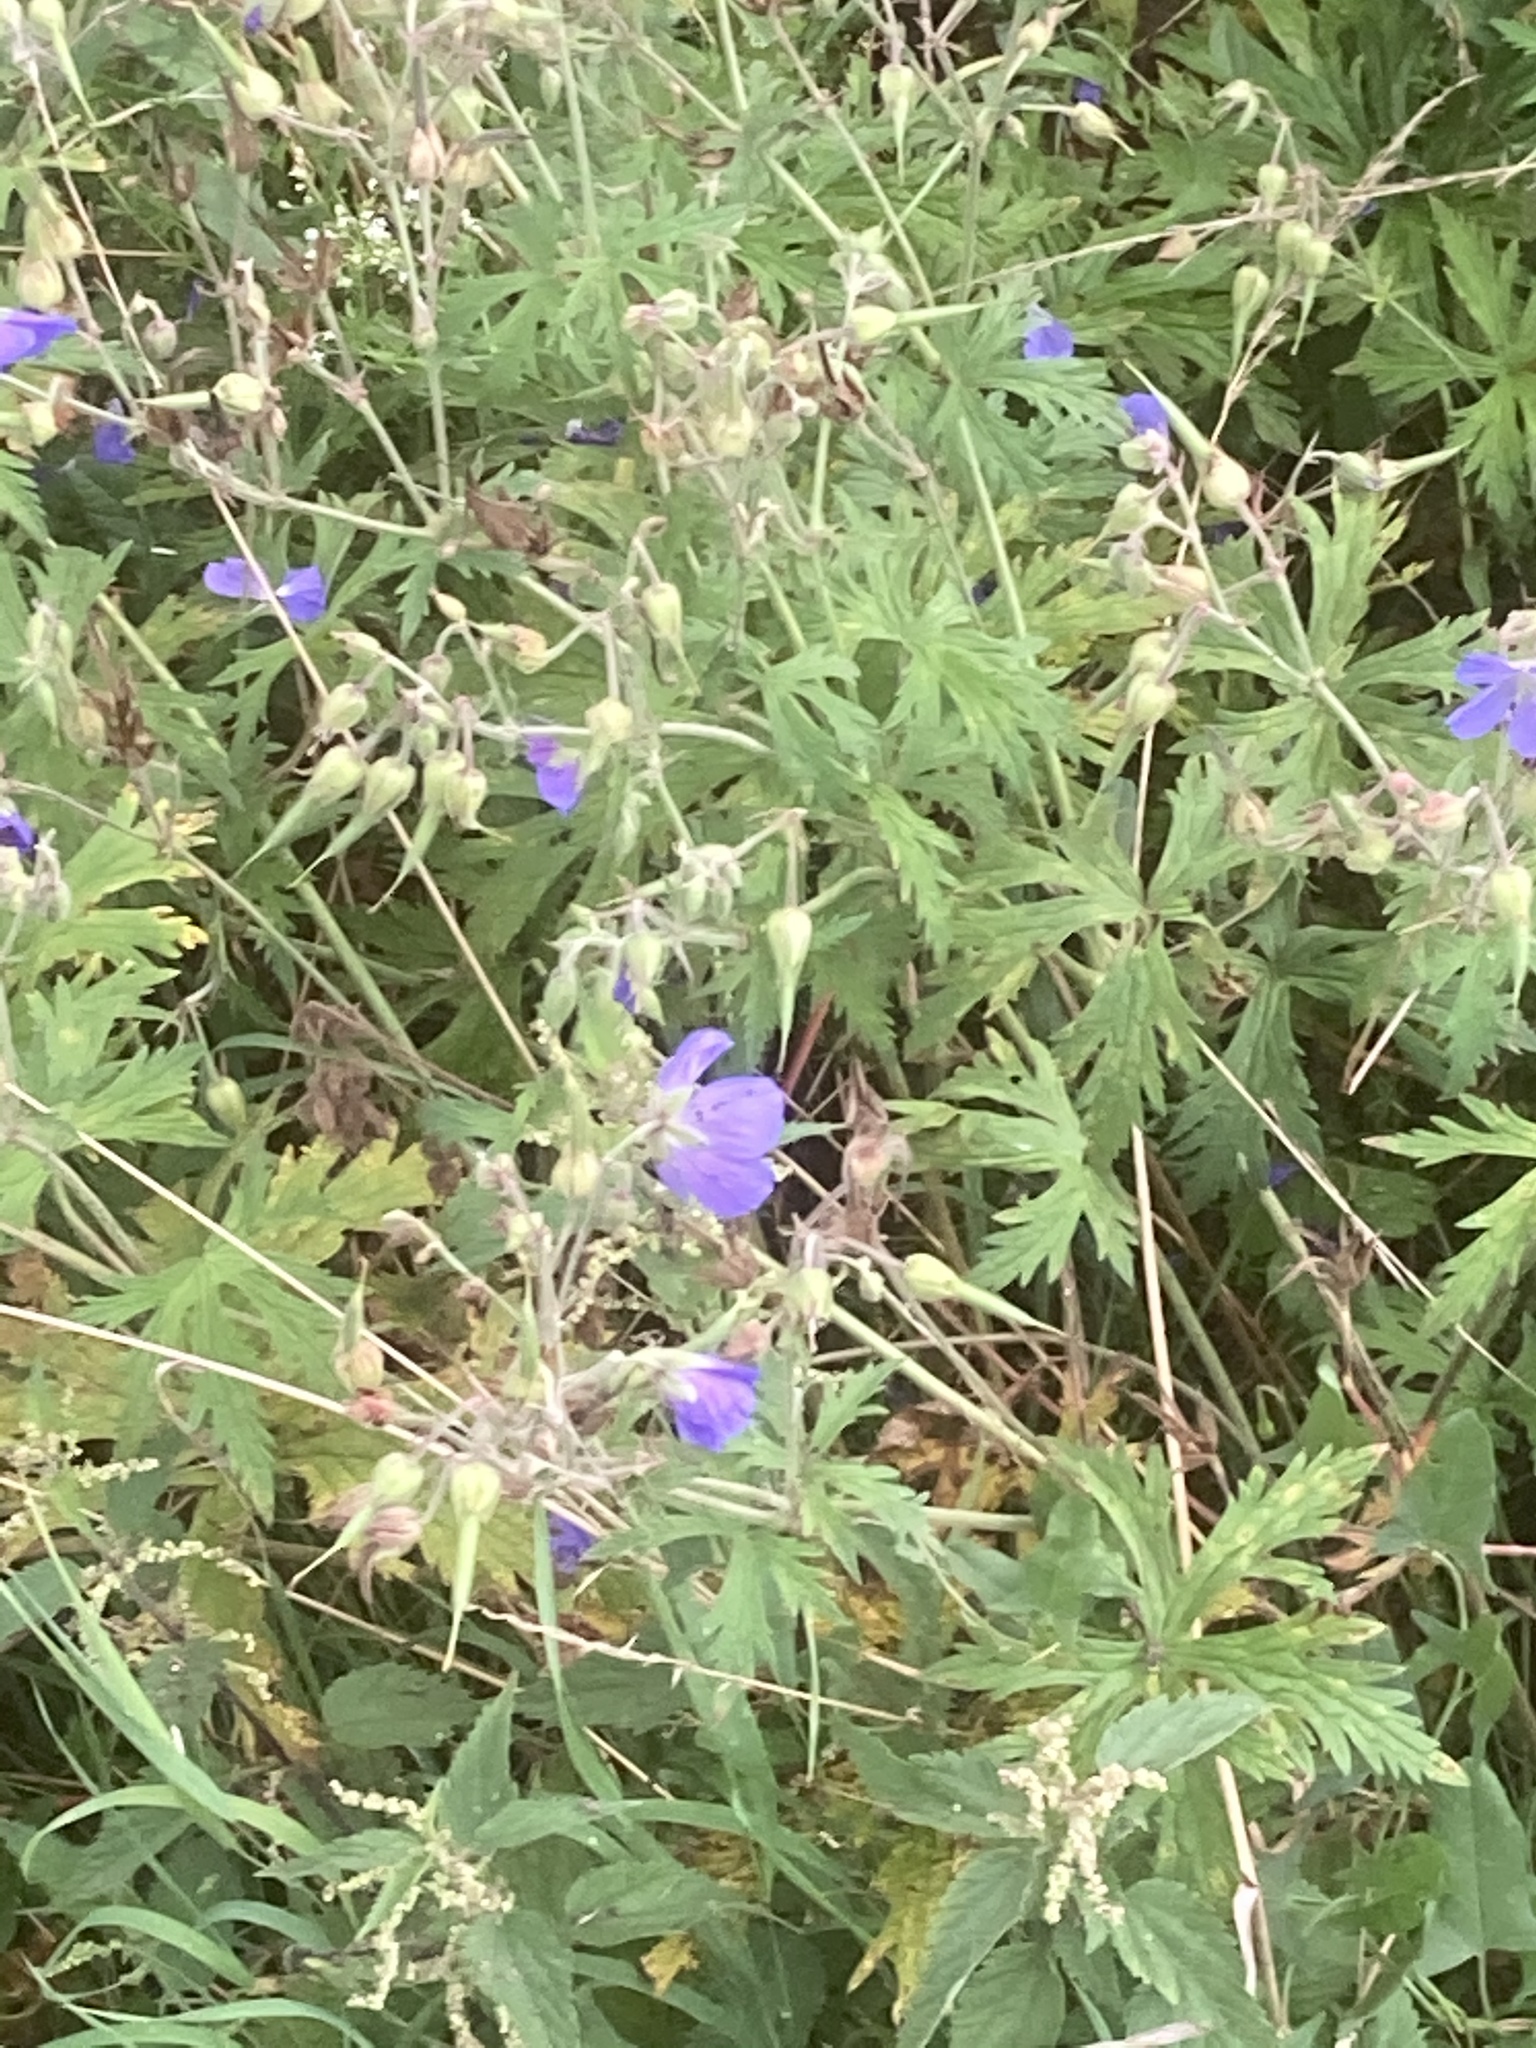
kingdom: Plantae
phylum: Tracheophyta
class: Magnoliopsida
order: Geraniales
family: Geraniaceae
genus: Geranium
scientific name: Geranium pratense
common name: Meadow crane's-bill
